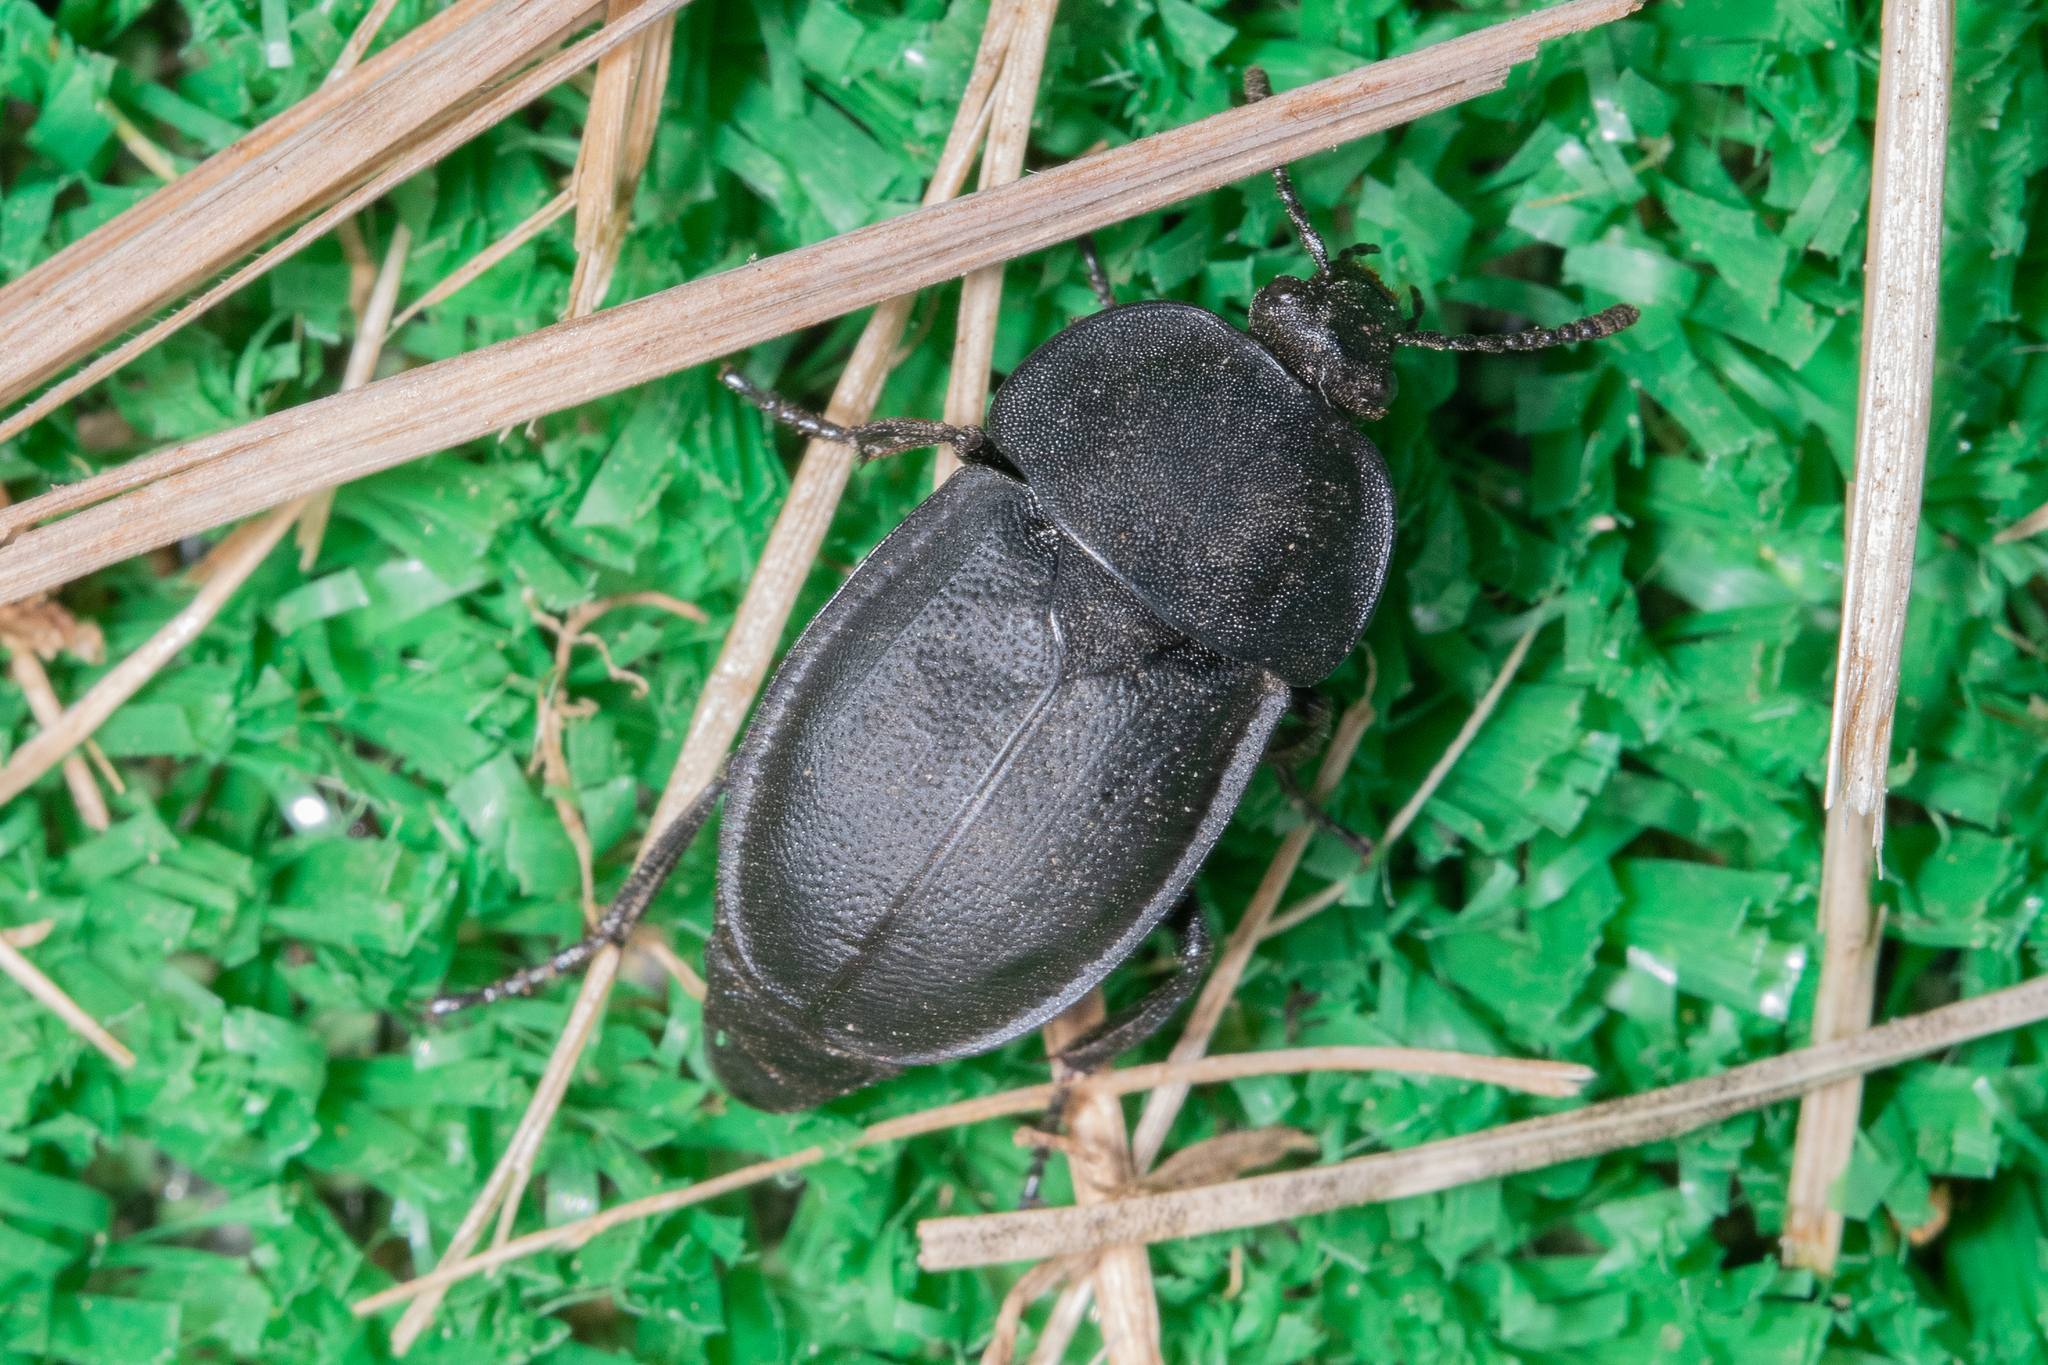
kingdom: Animalia
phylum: Arthropoda
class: Insecta
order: Coleoptera
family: Staphylinidae
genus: Silpha
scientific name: Silpha obscura
